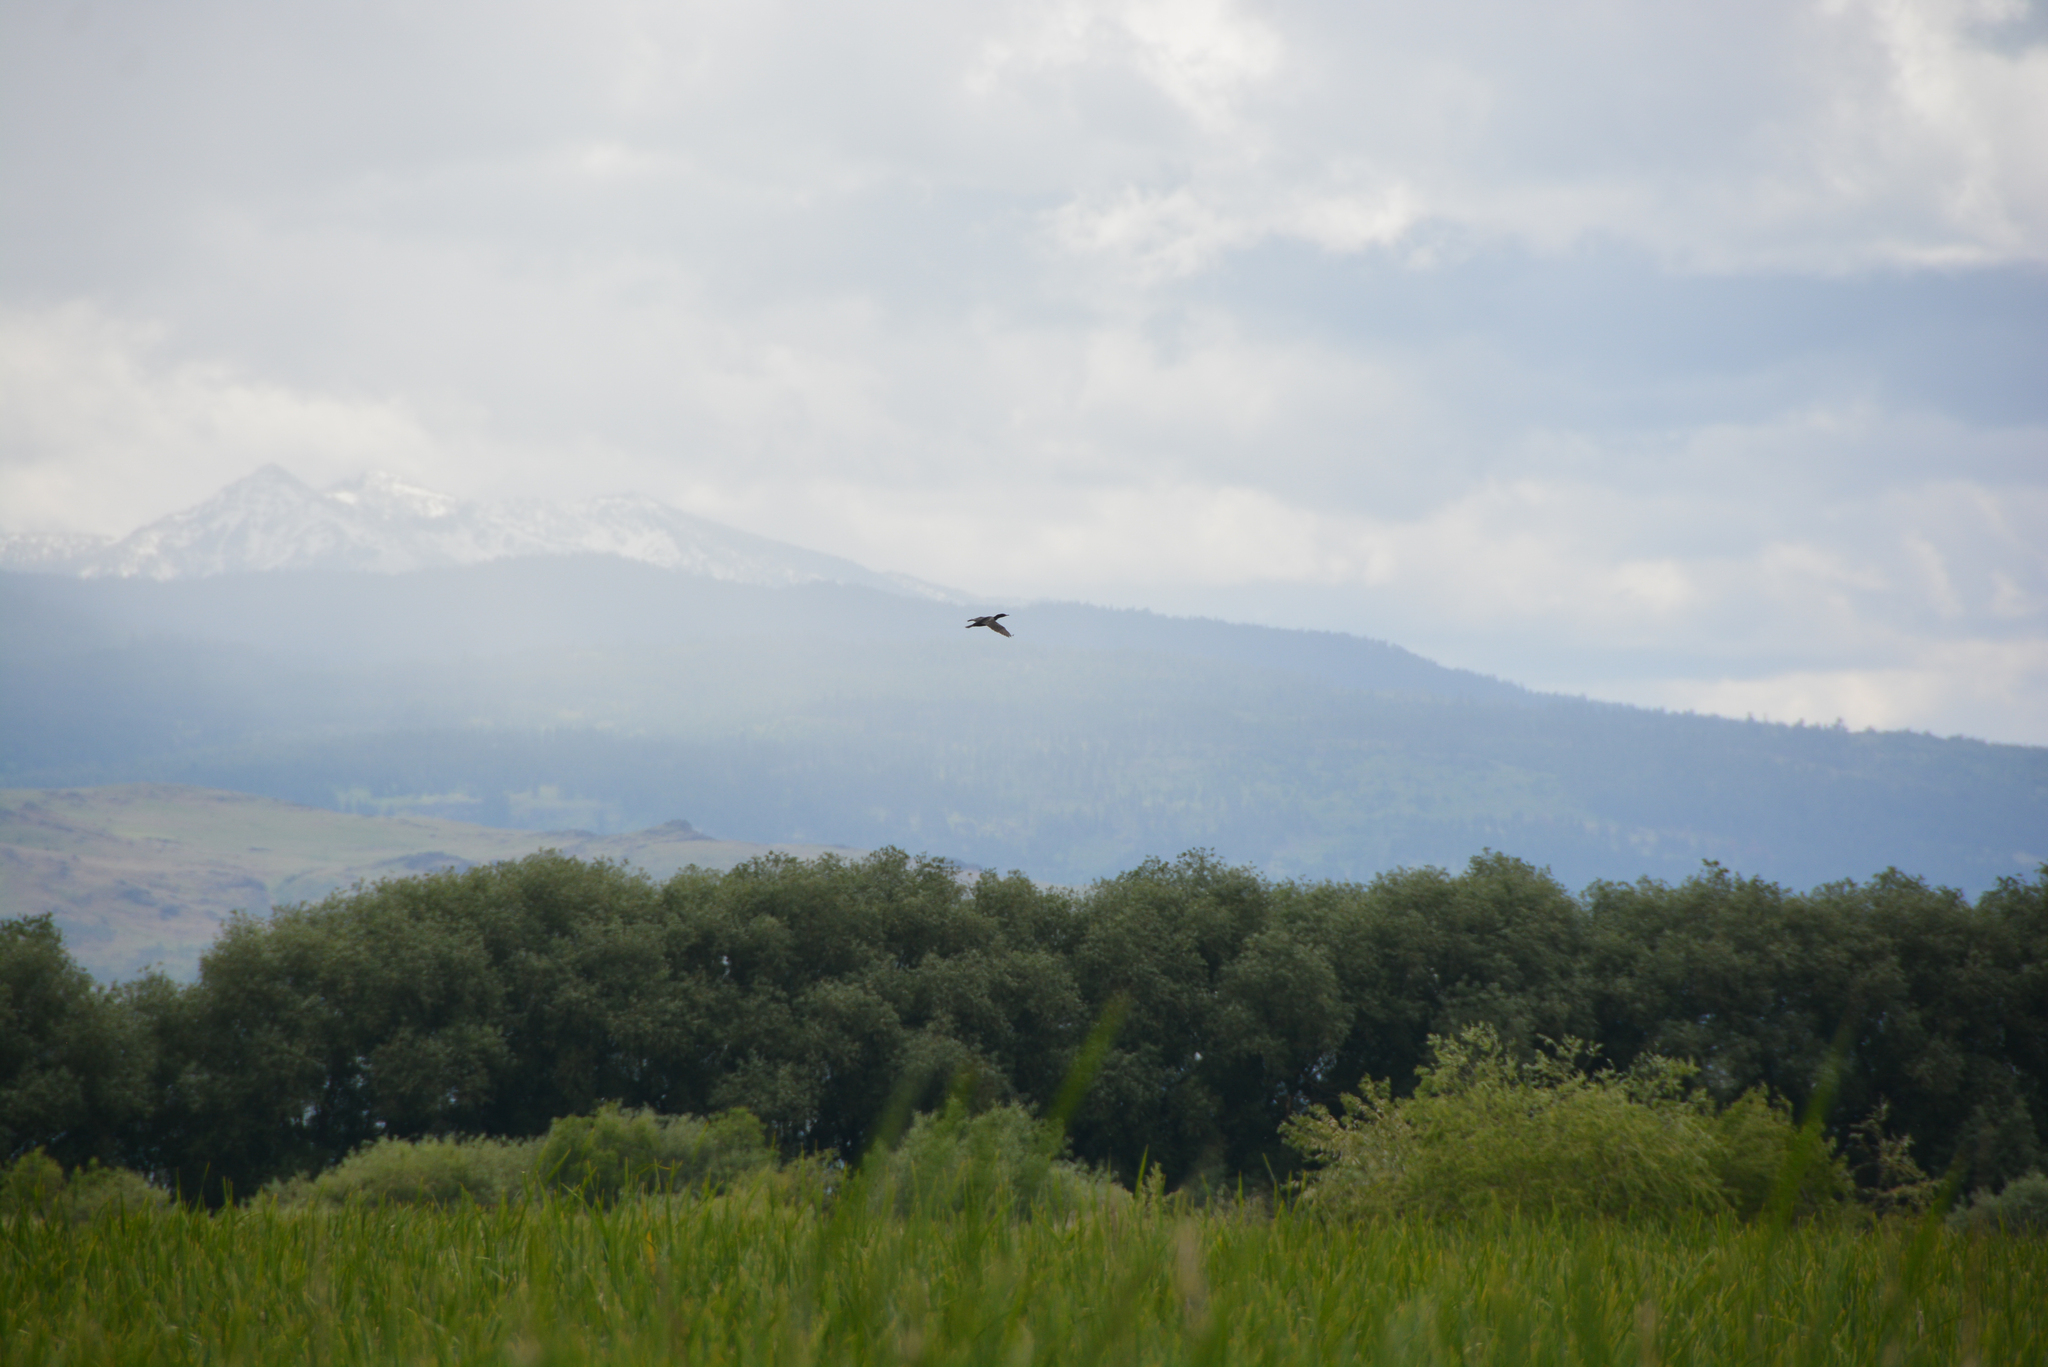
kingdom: Animalia
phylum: Chordata
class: Aves
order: Suliformes
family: Phalacrocoracidae
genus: Phalacrocorax
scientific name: Phalacrocorax auritus
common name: Double-crested cormorant
